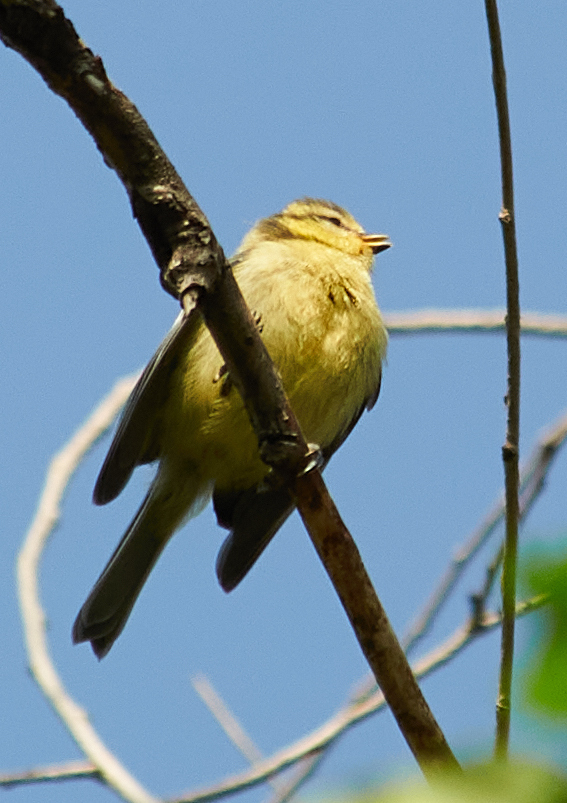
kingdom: Animalia
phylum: Chordata
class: Aves
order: Passeriformes
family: Paridae
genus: Cyanistes
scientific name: Cyanistes caeruleus
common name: Eurasian blue tit
